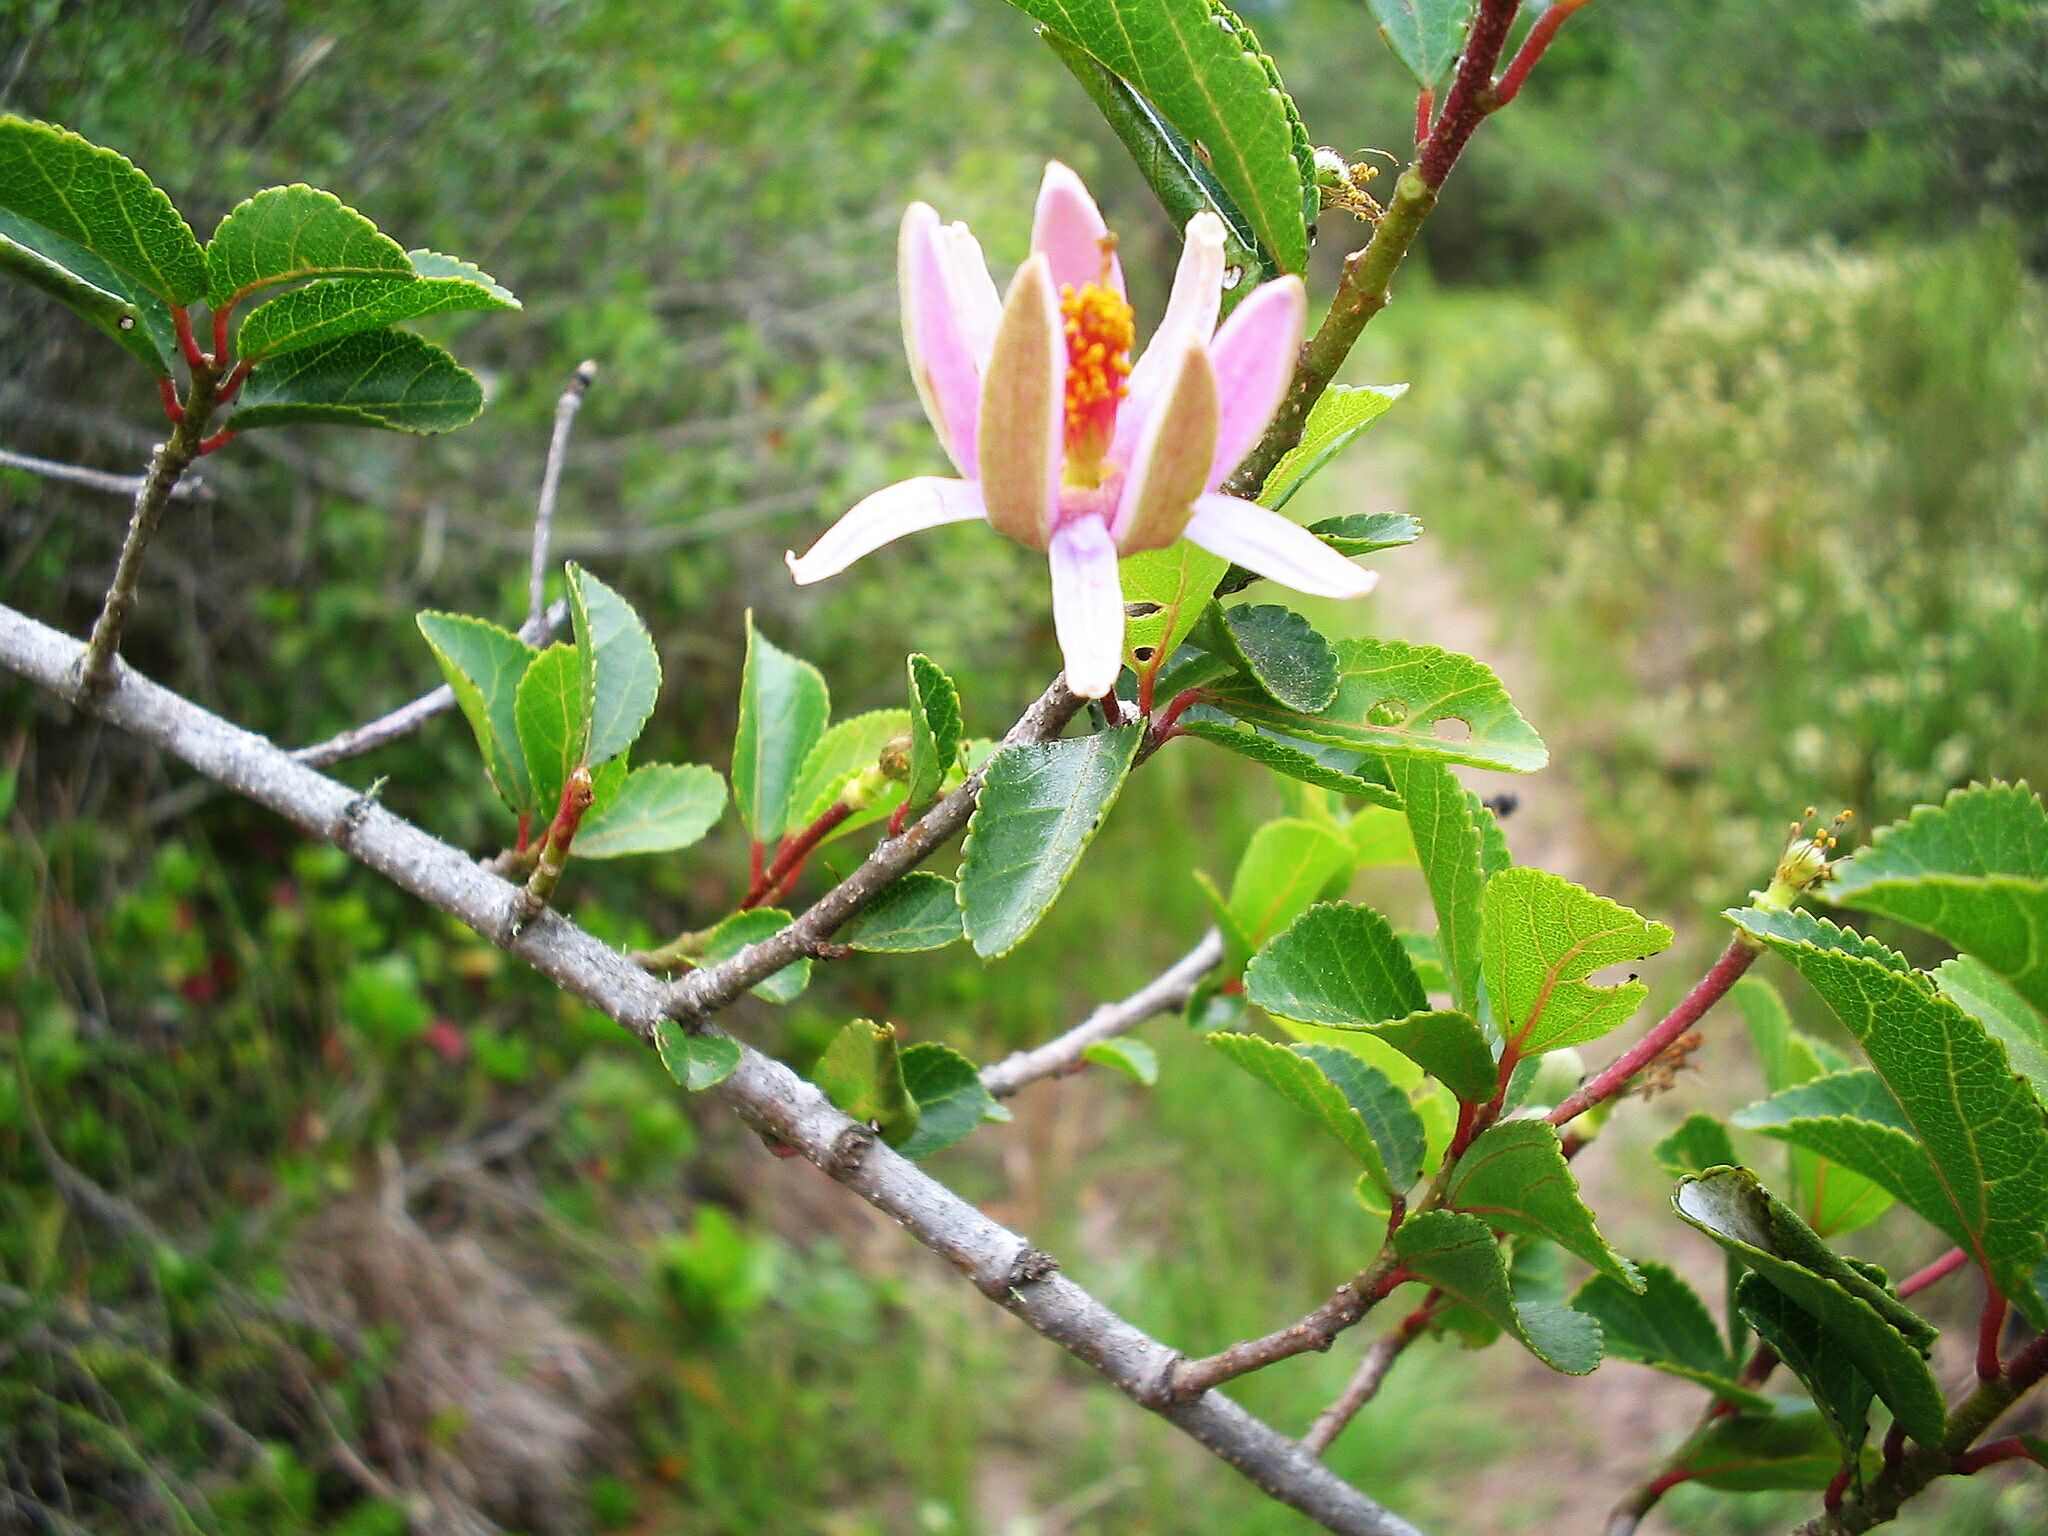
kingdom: Plantae
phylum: Tracheophyta
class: Magnoliopsida
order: Malvales
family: Malvaceae
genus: Grewia
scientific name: Grewia occidentalis
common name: Crossberry
